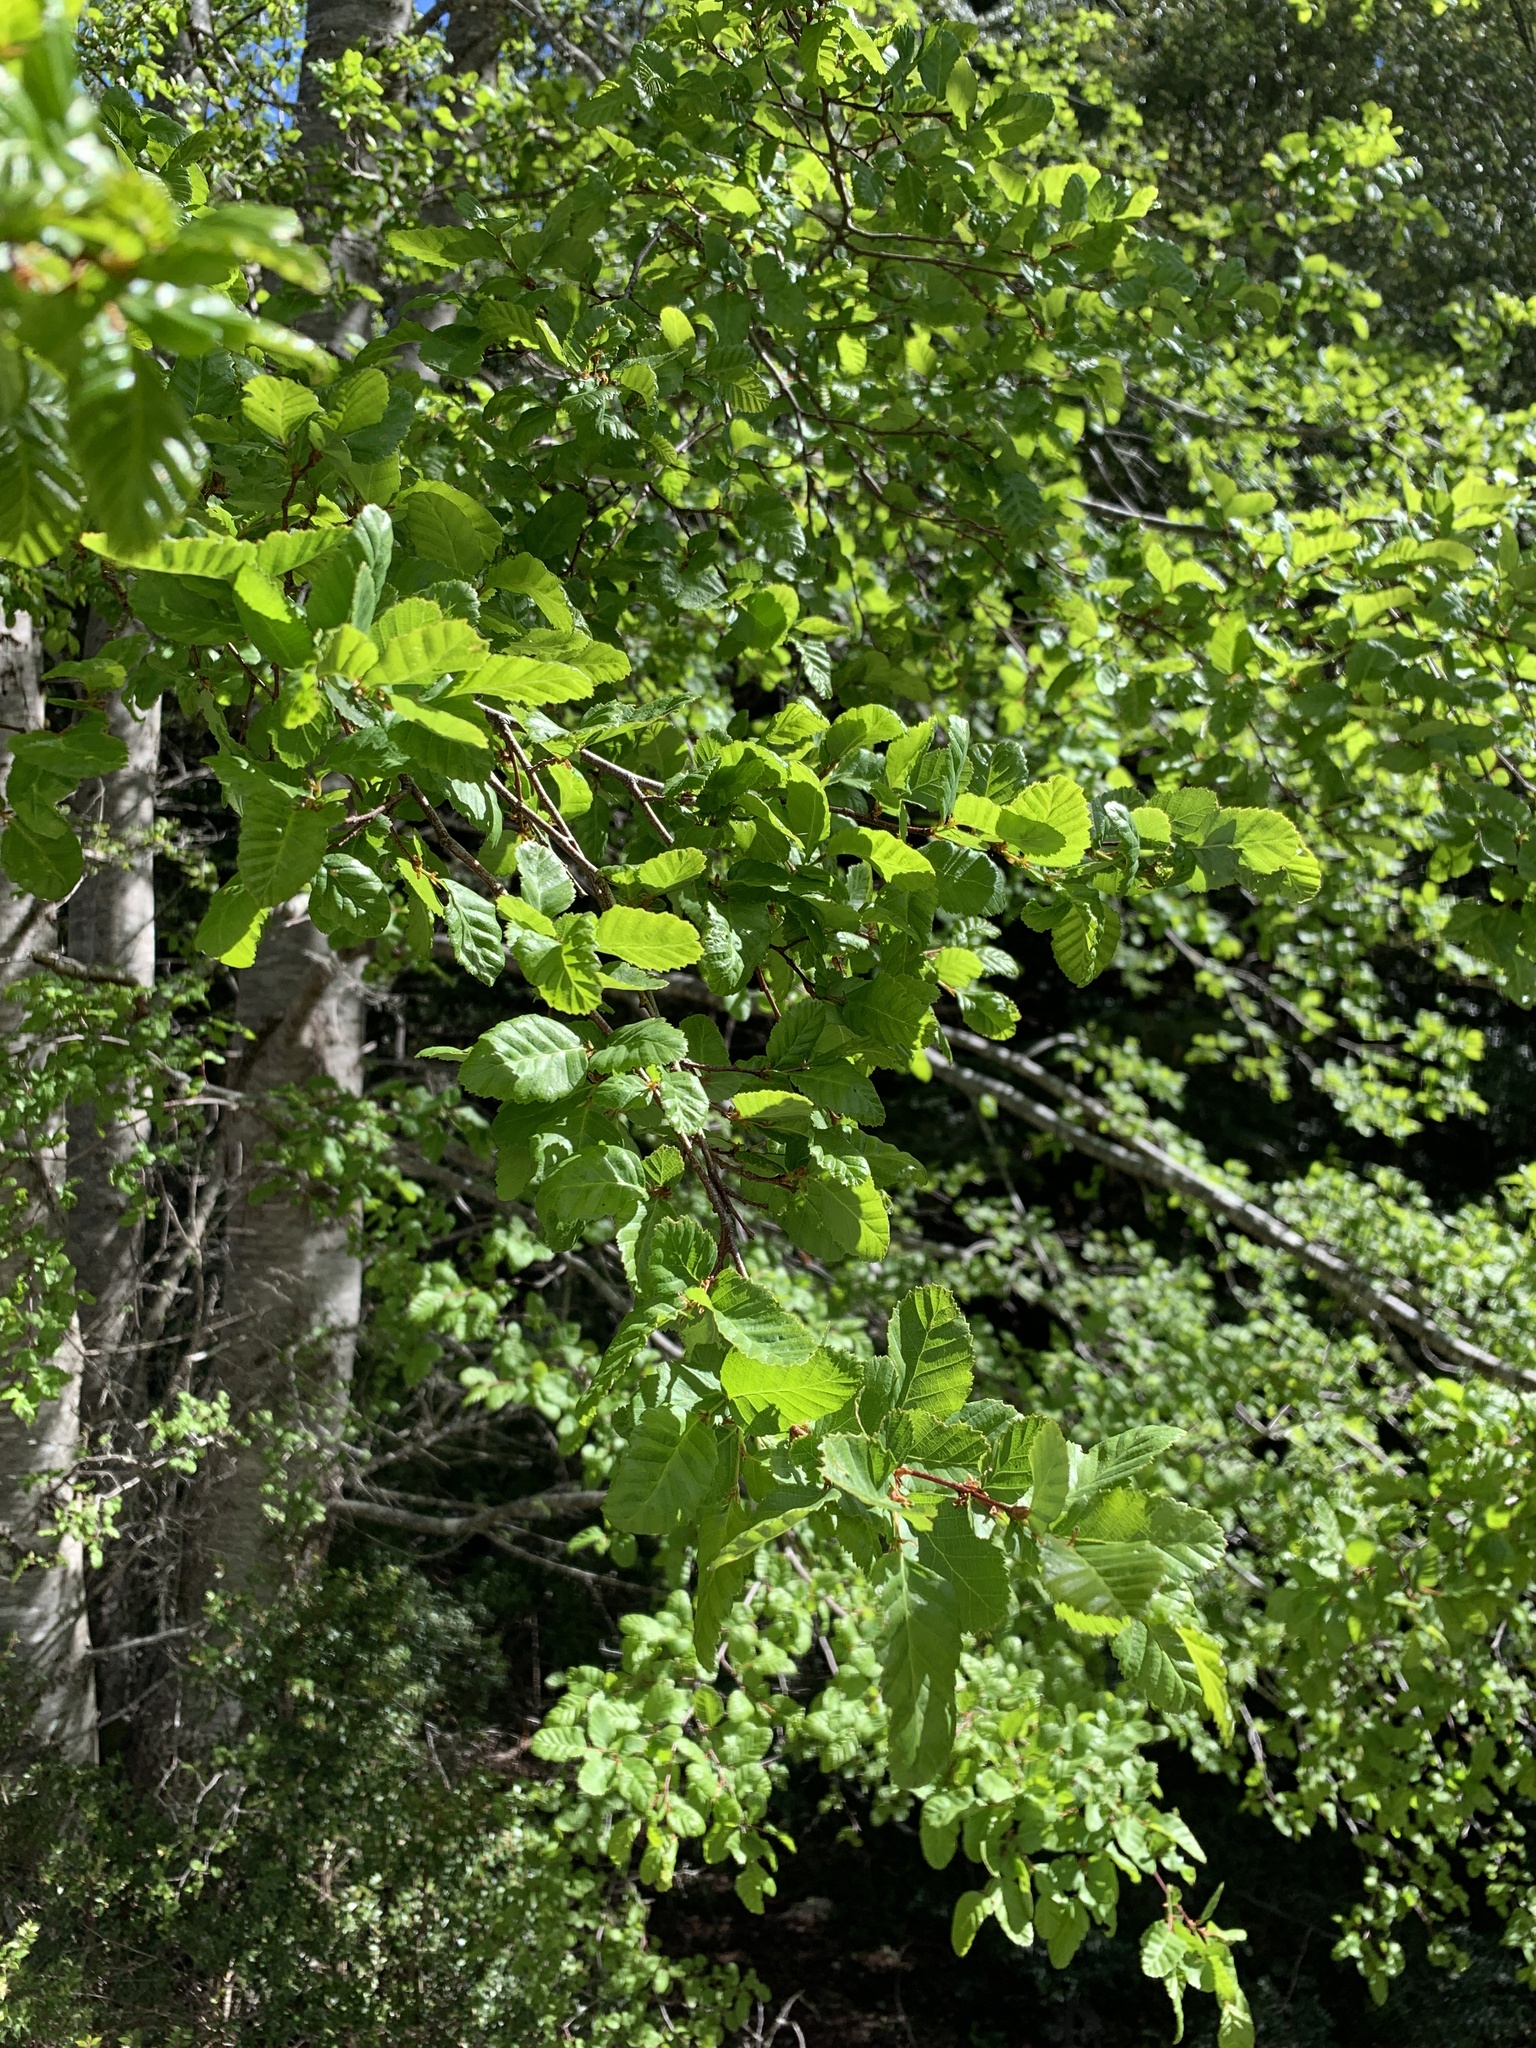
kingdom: Plantae
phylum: Tracheophyta
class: Magnoliopsida
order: Fagales
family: Nothofagaceae
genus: Nothofagus
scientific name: Nothofagus obliqua
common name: Roble beech
